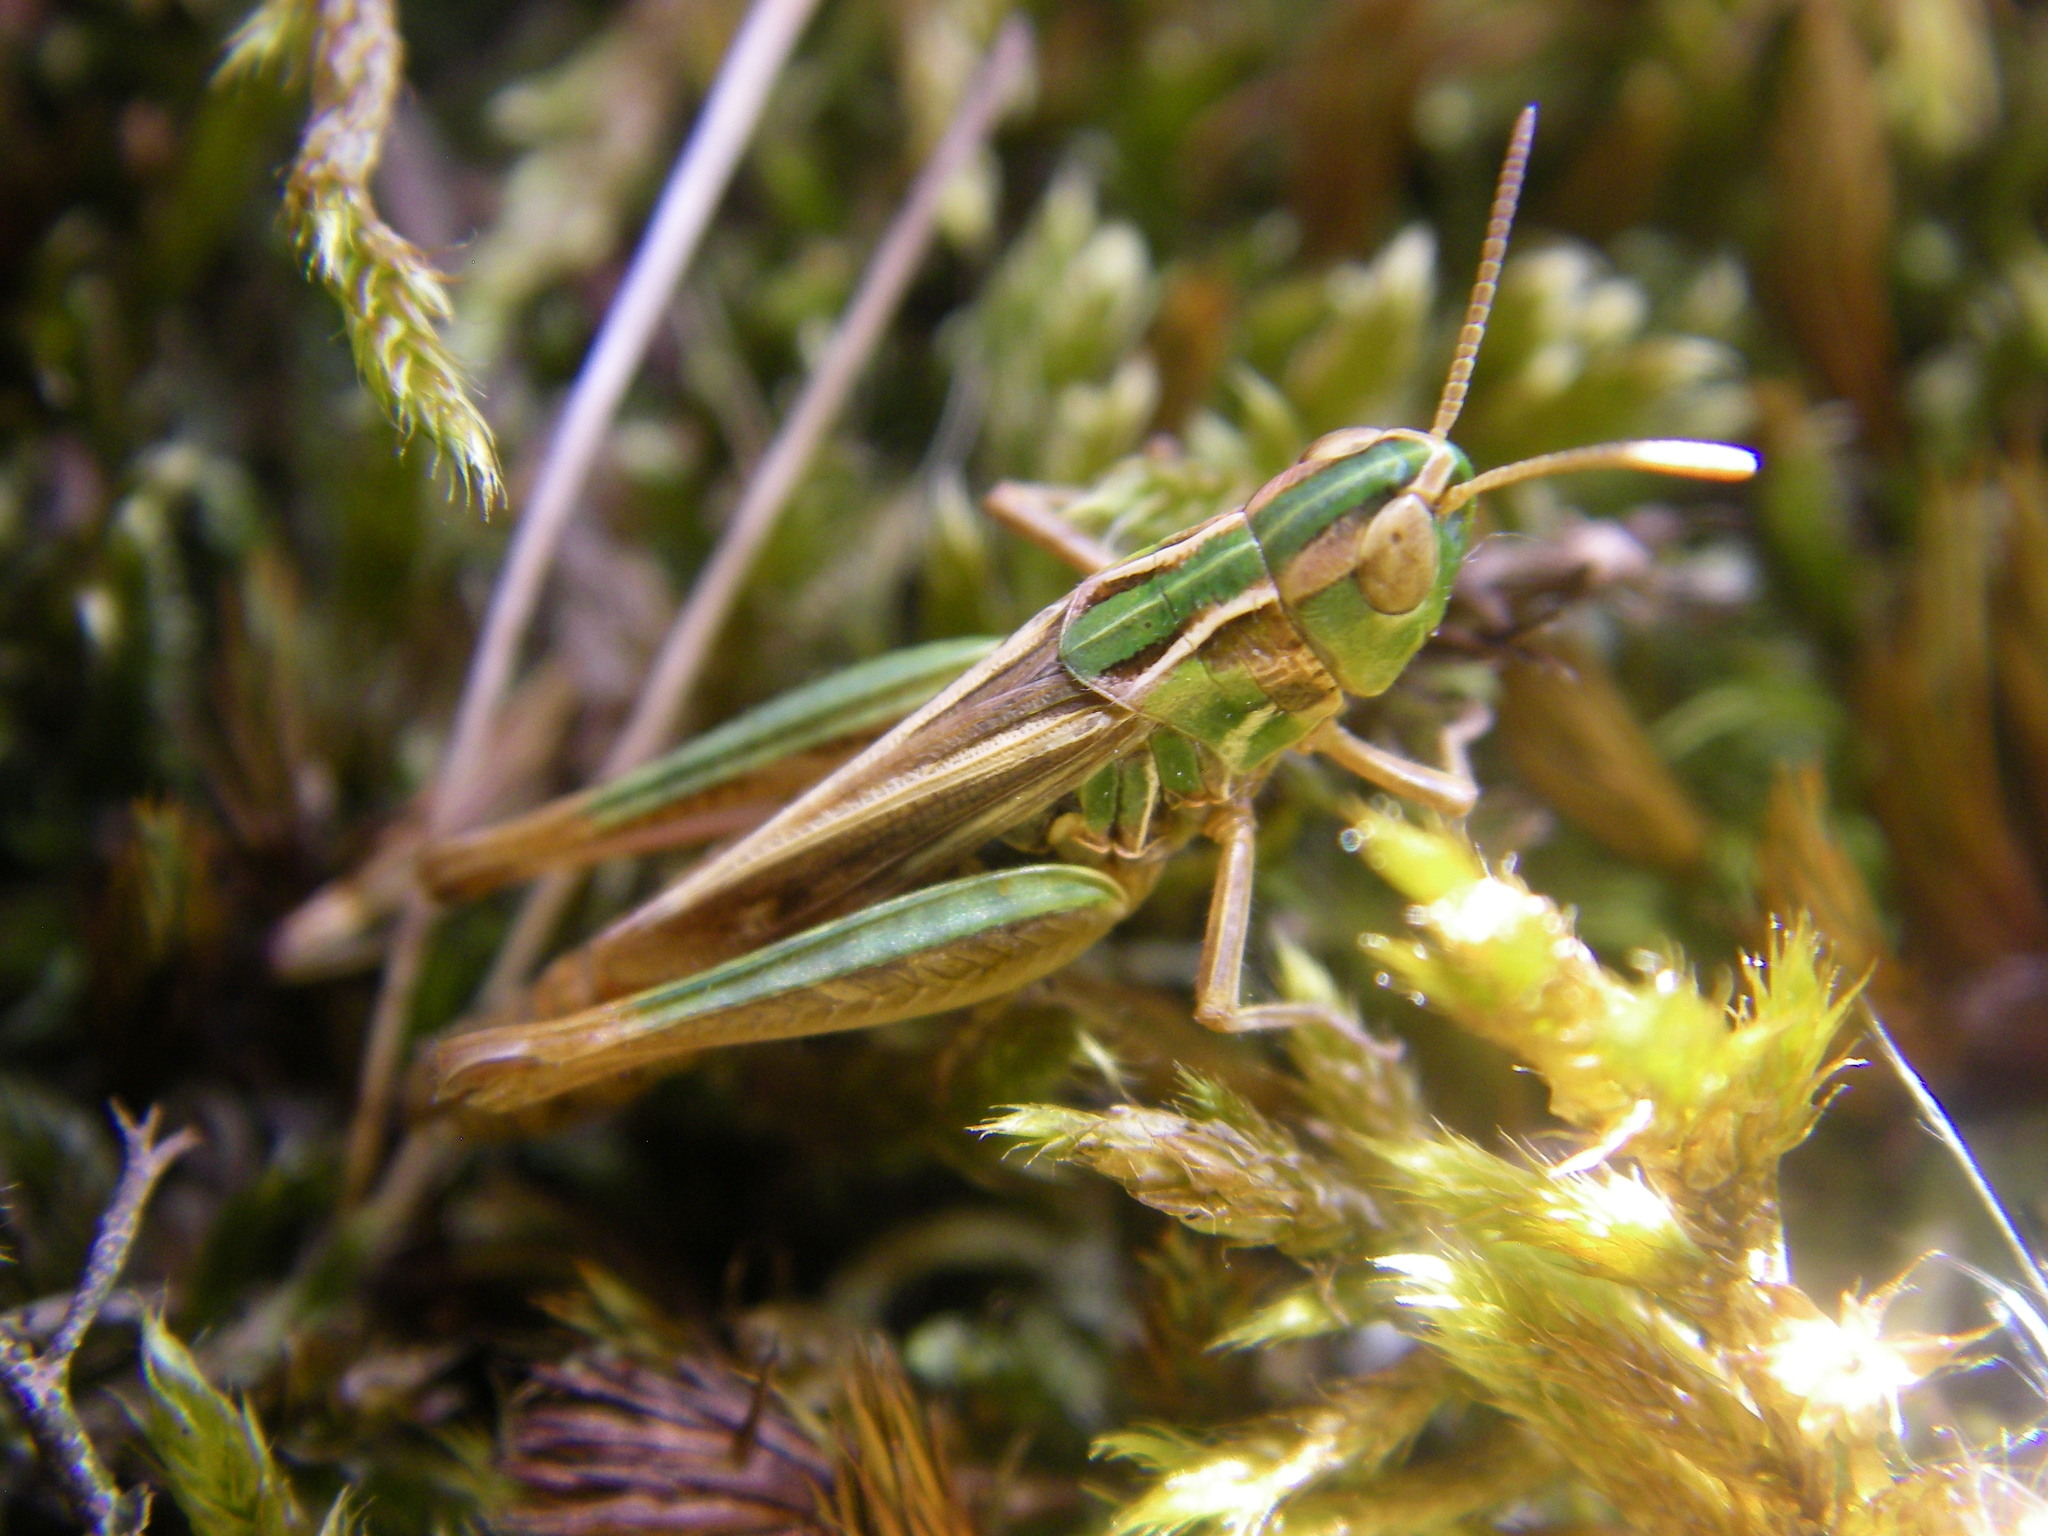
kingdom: Animalia
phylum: Arthropoda
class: Insecta
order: Orthoptera
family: Acrididae
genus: Stenobothrus
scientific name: Stenobothrus stigmaticus
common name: Lesser mottled grasshopper
